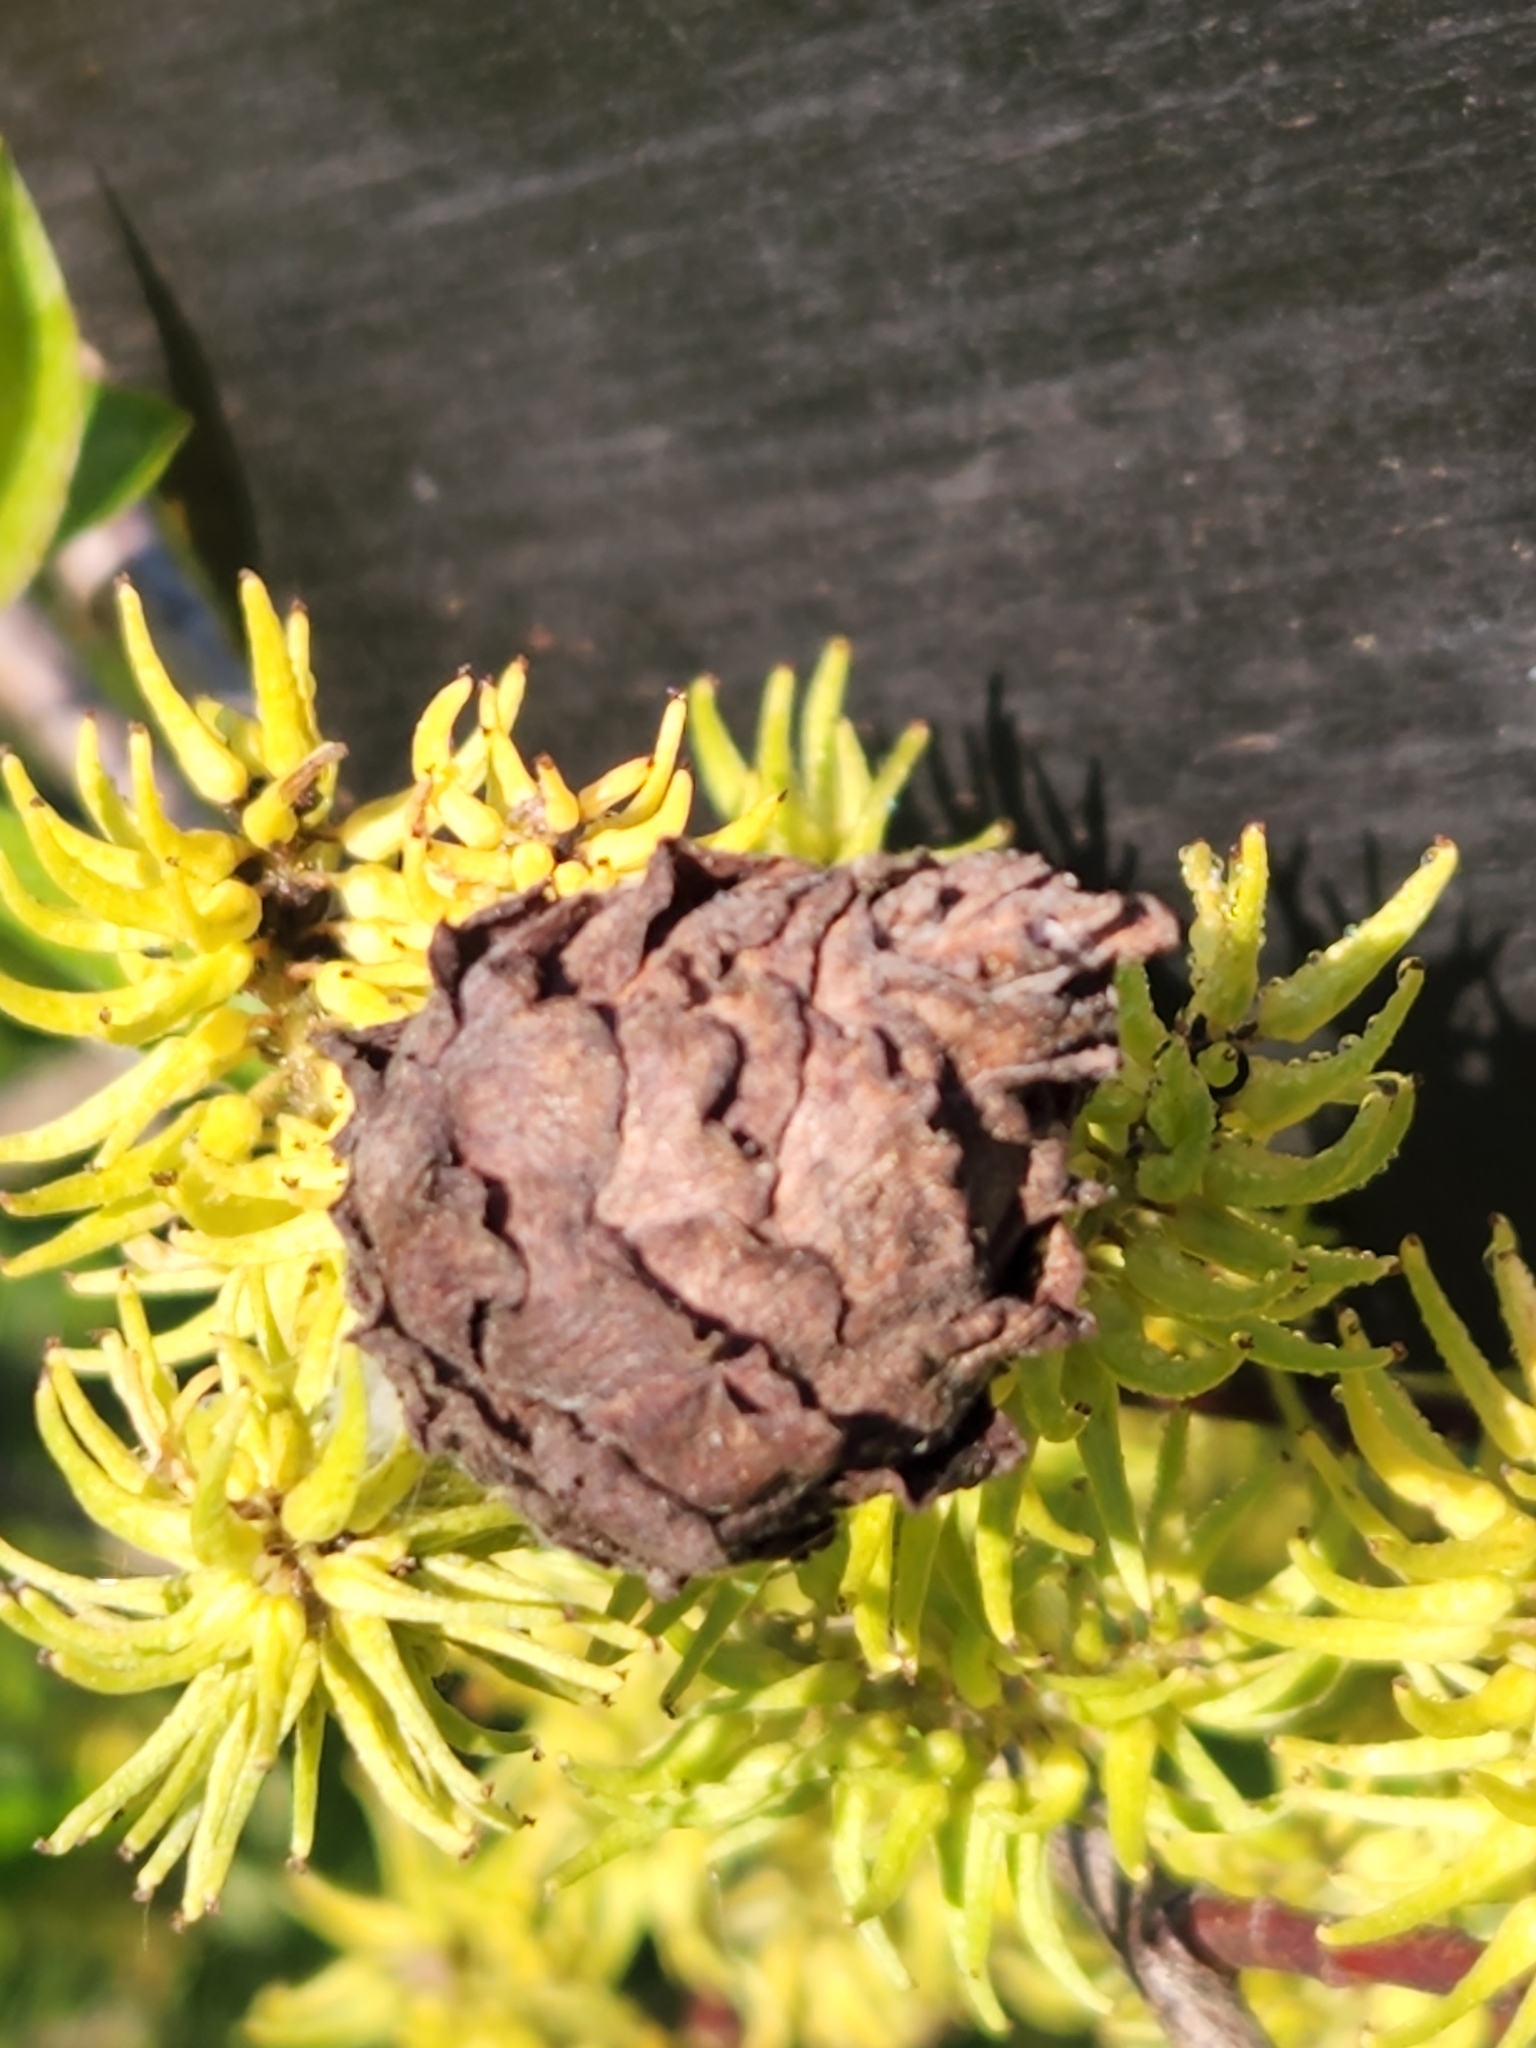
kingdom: Plantae
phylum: Tracheophyta
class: Magnoliopsida
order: Malpighiales
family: Salicaceae
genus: Salix
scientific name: Salix bebbiana
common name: Bebb's willow
